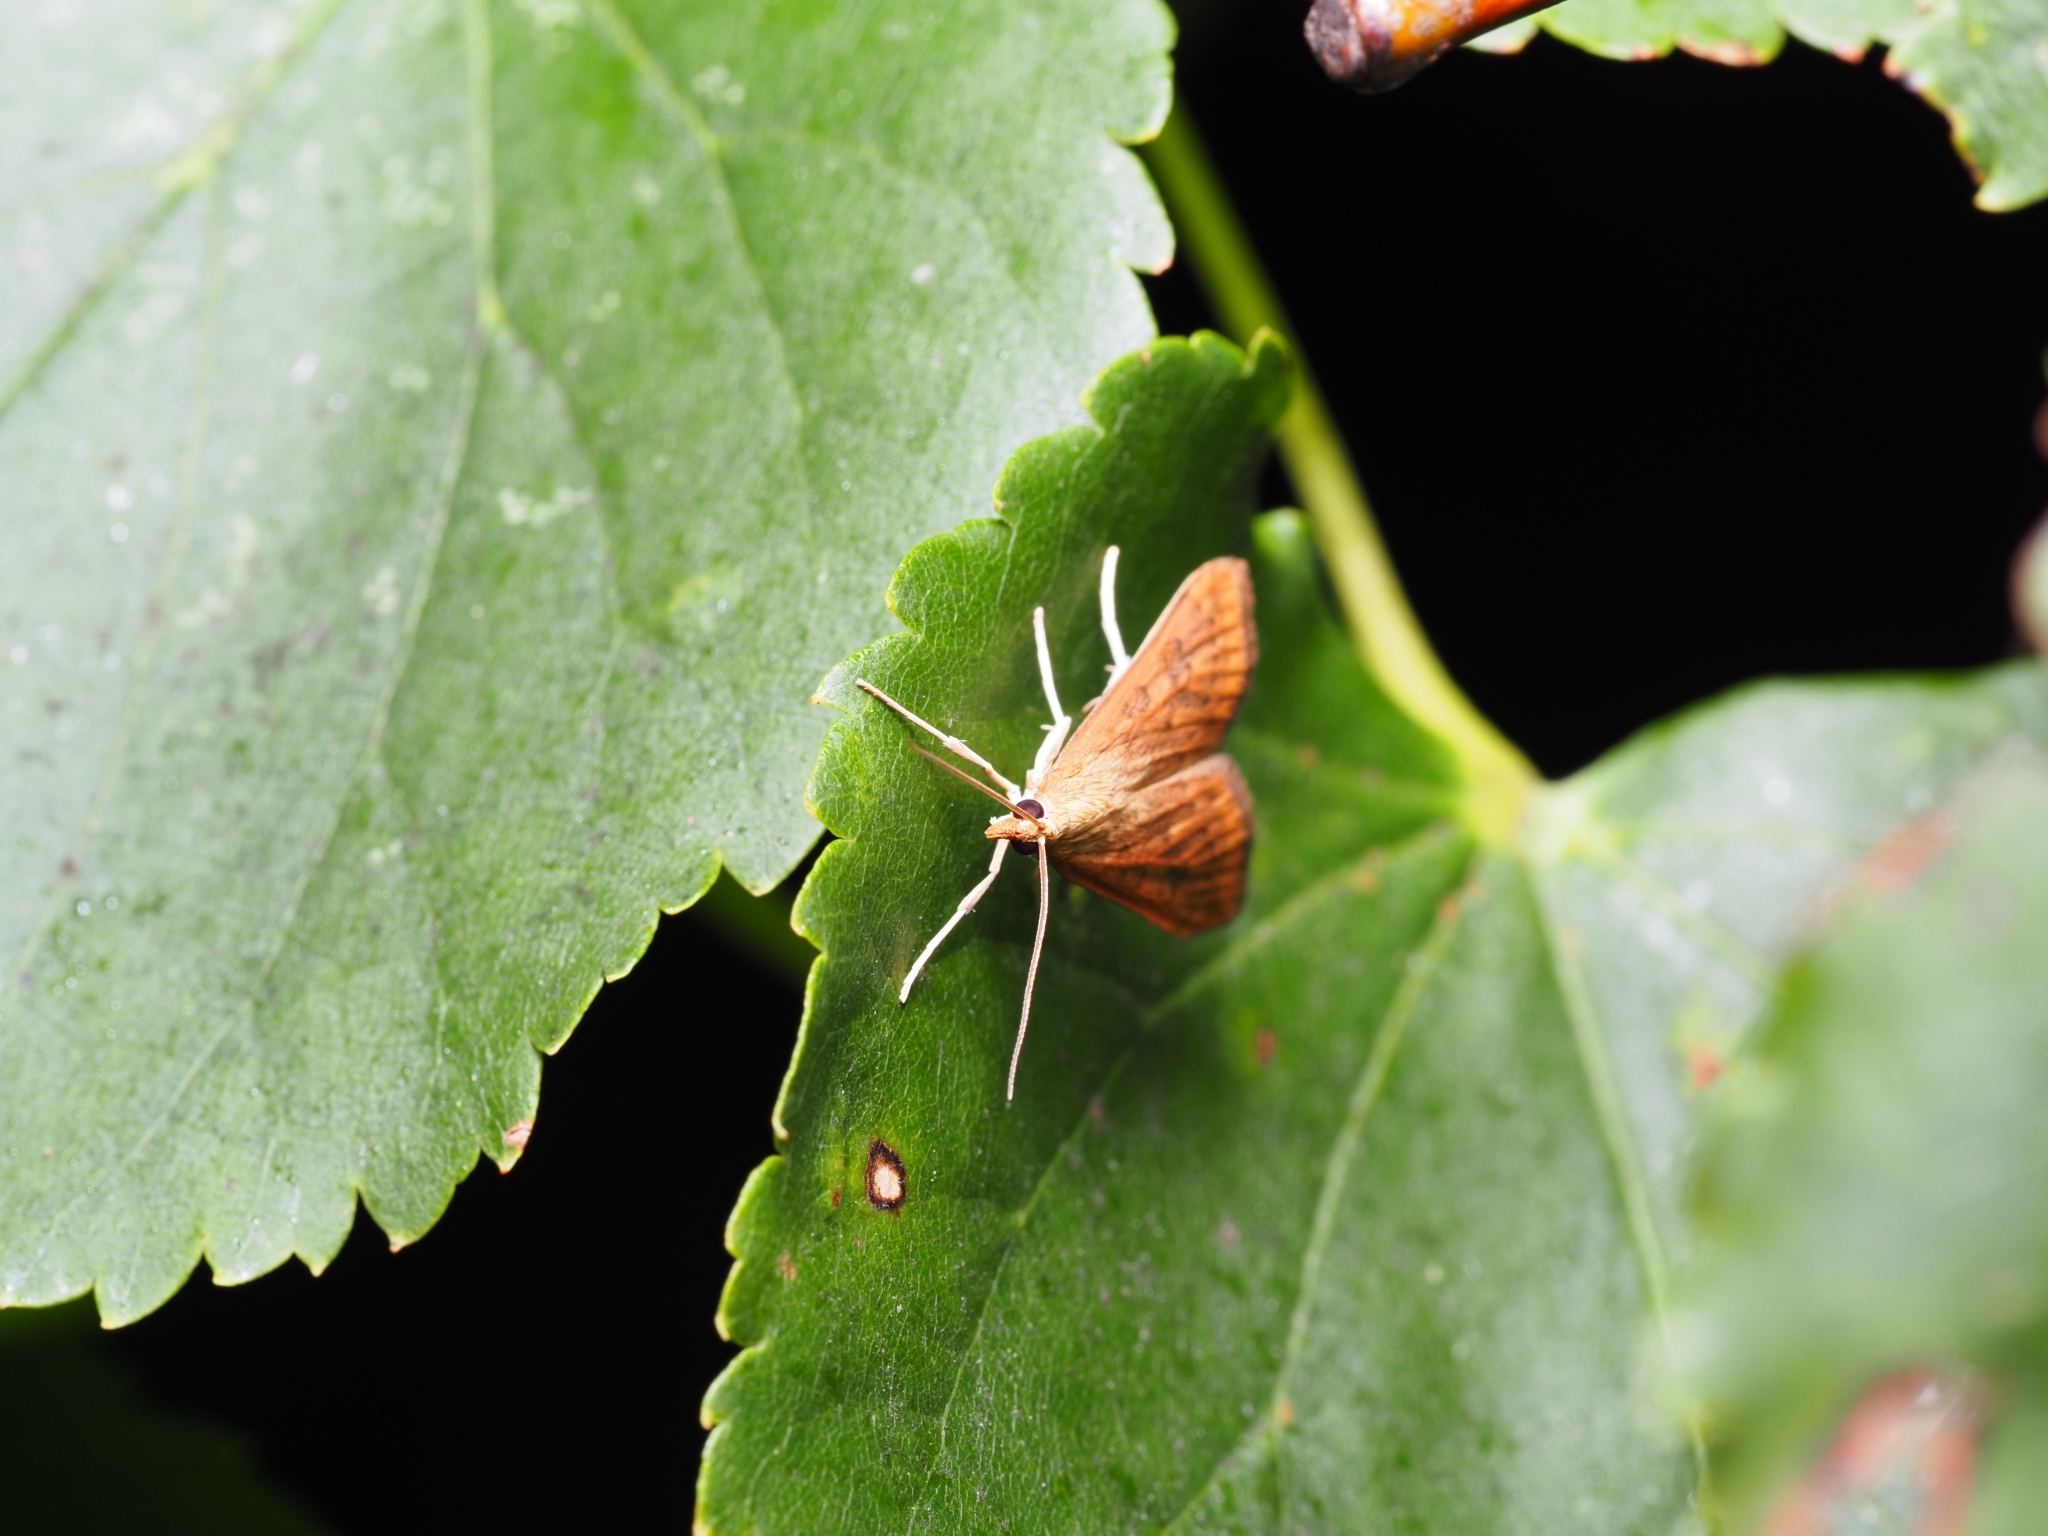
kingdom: Animalia
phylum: Arthropoda
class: Insecta
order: Lepidoptera
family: Crambidae
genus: Udea
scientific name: Udea ferrugalis
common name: Rusty dot
